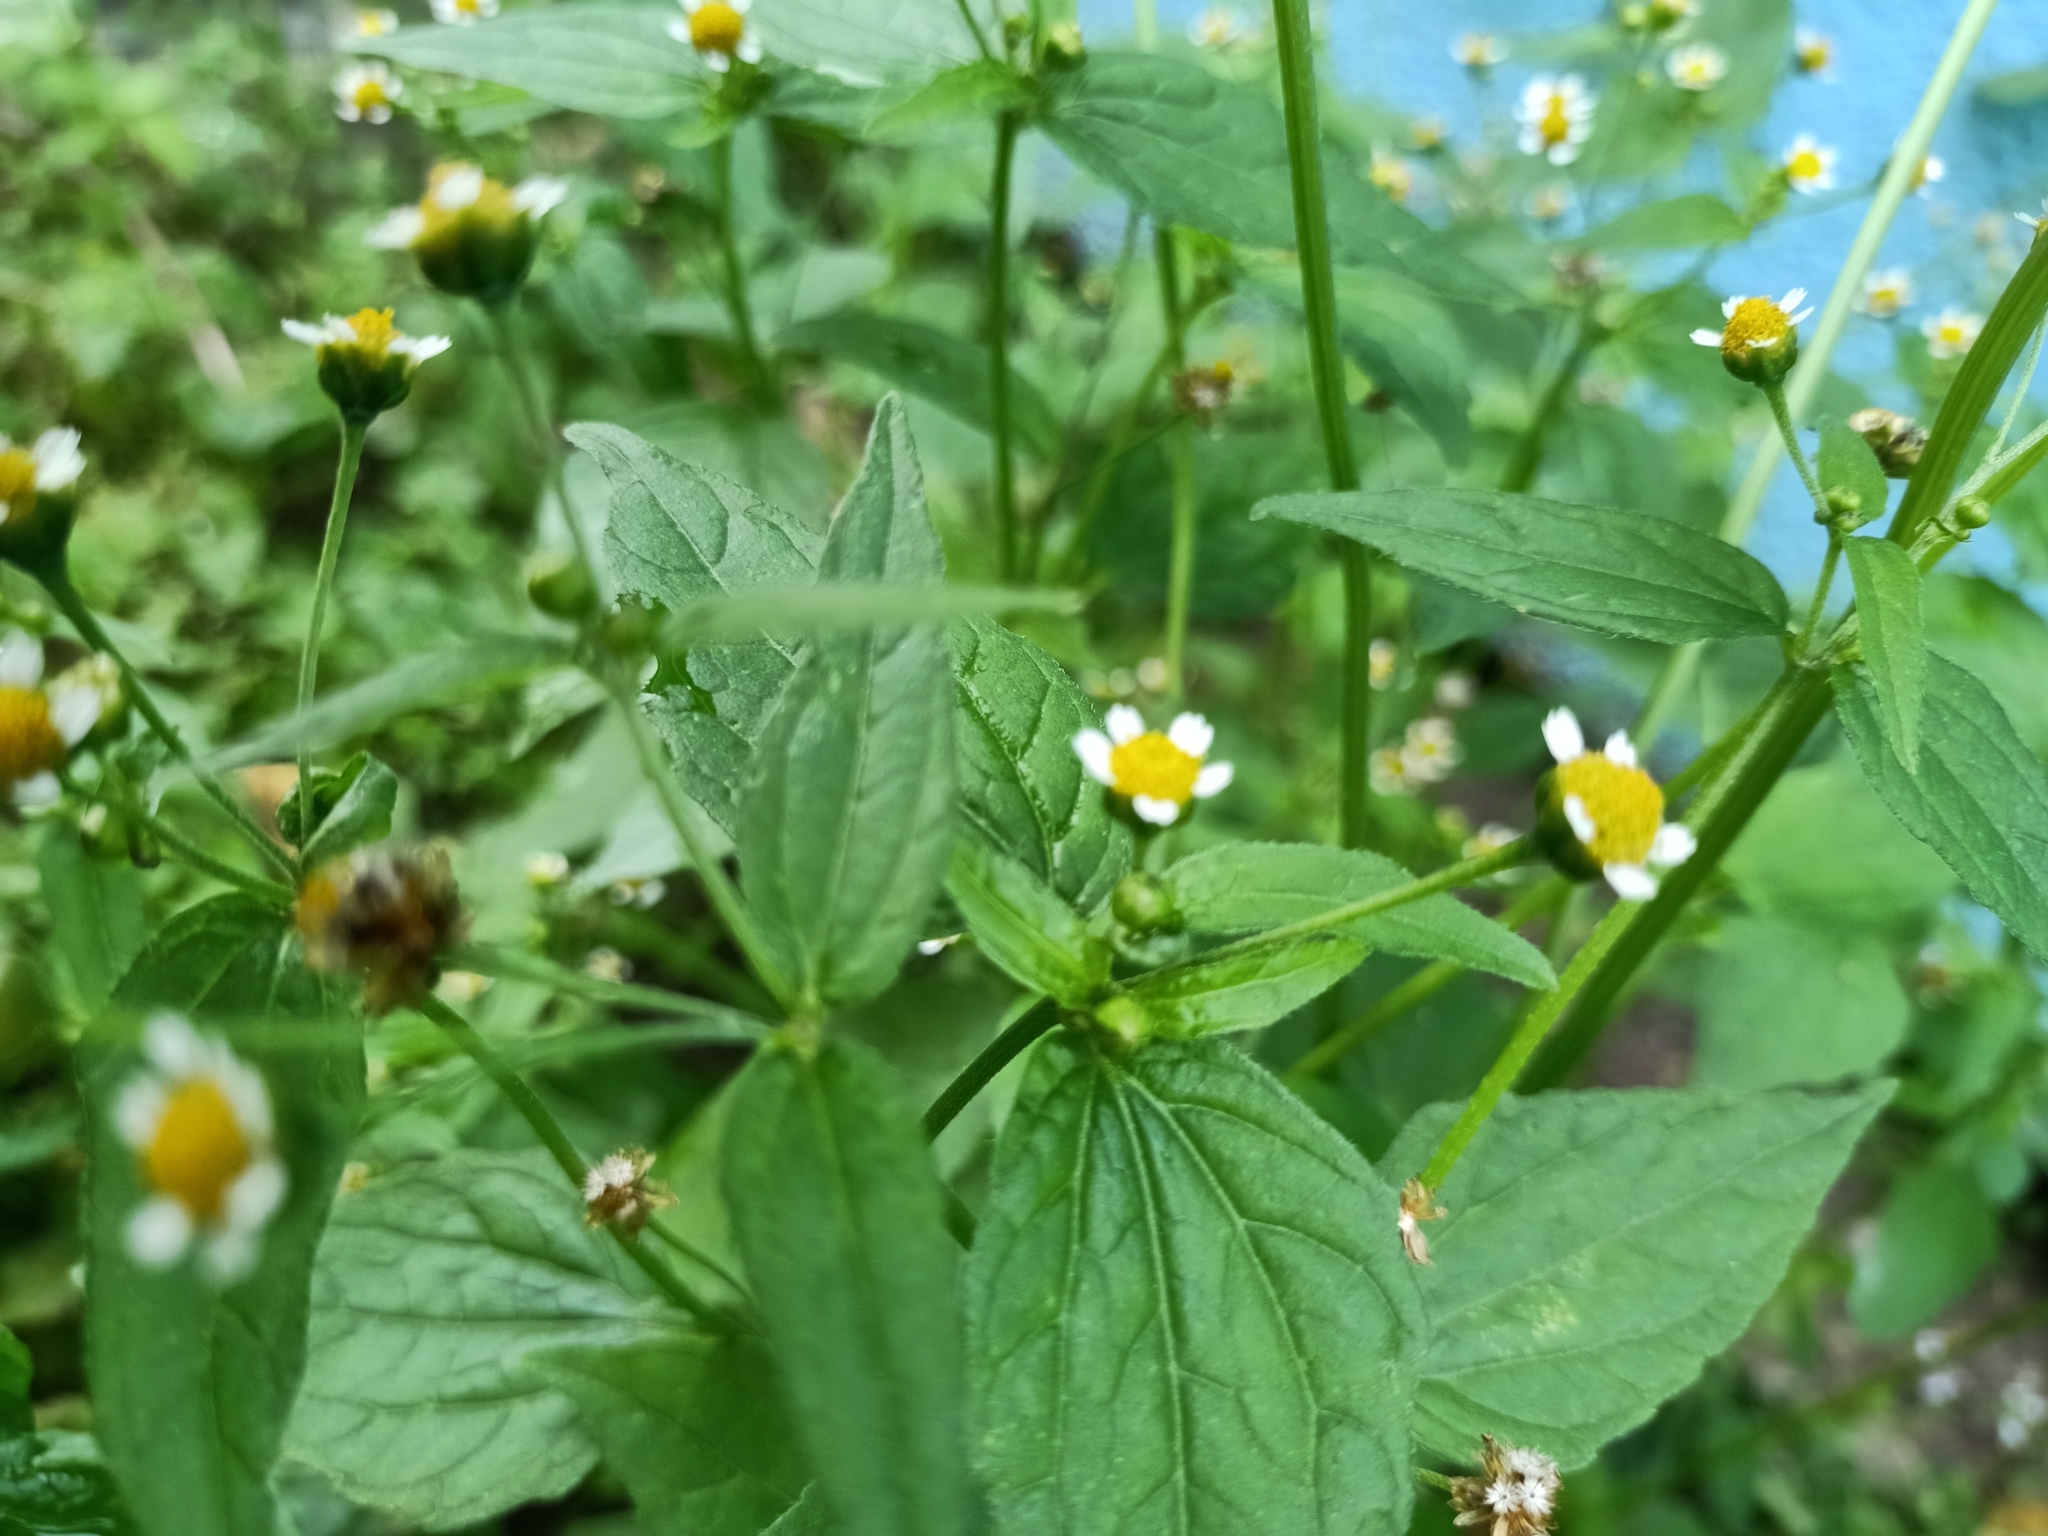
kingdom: Plantae
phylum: Tracheophyta
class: Magnoliopsida
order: Asterales
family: Asteraceae
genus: Galinsoga
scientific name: Galinsoga parviflora
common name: Gallant soldier
